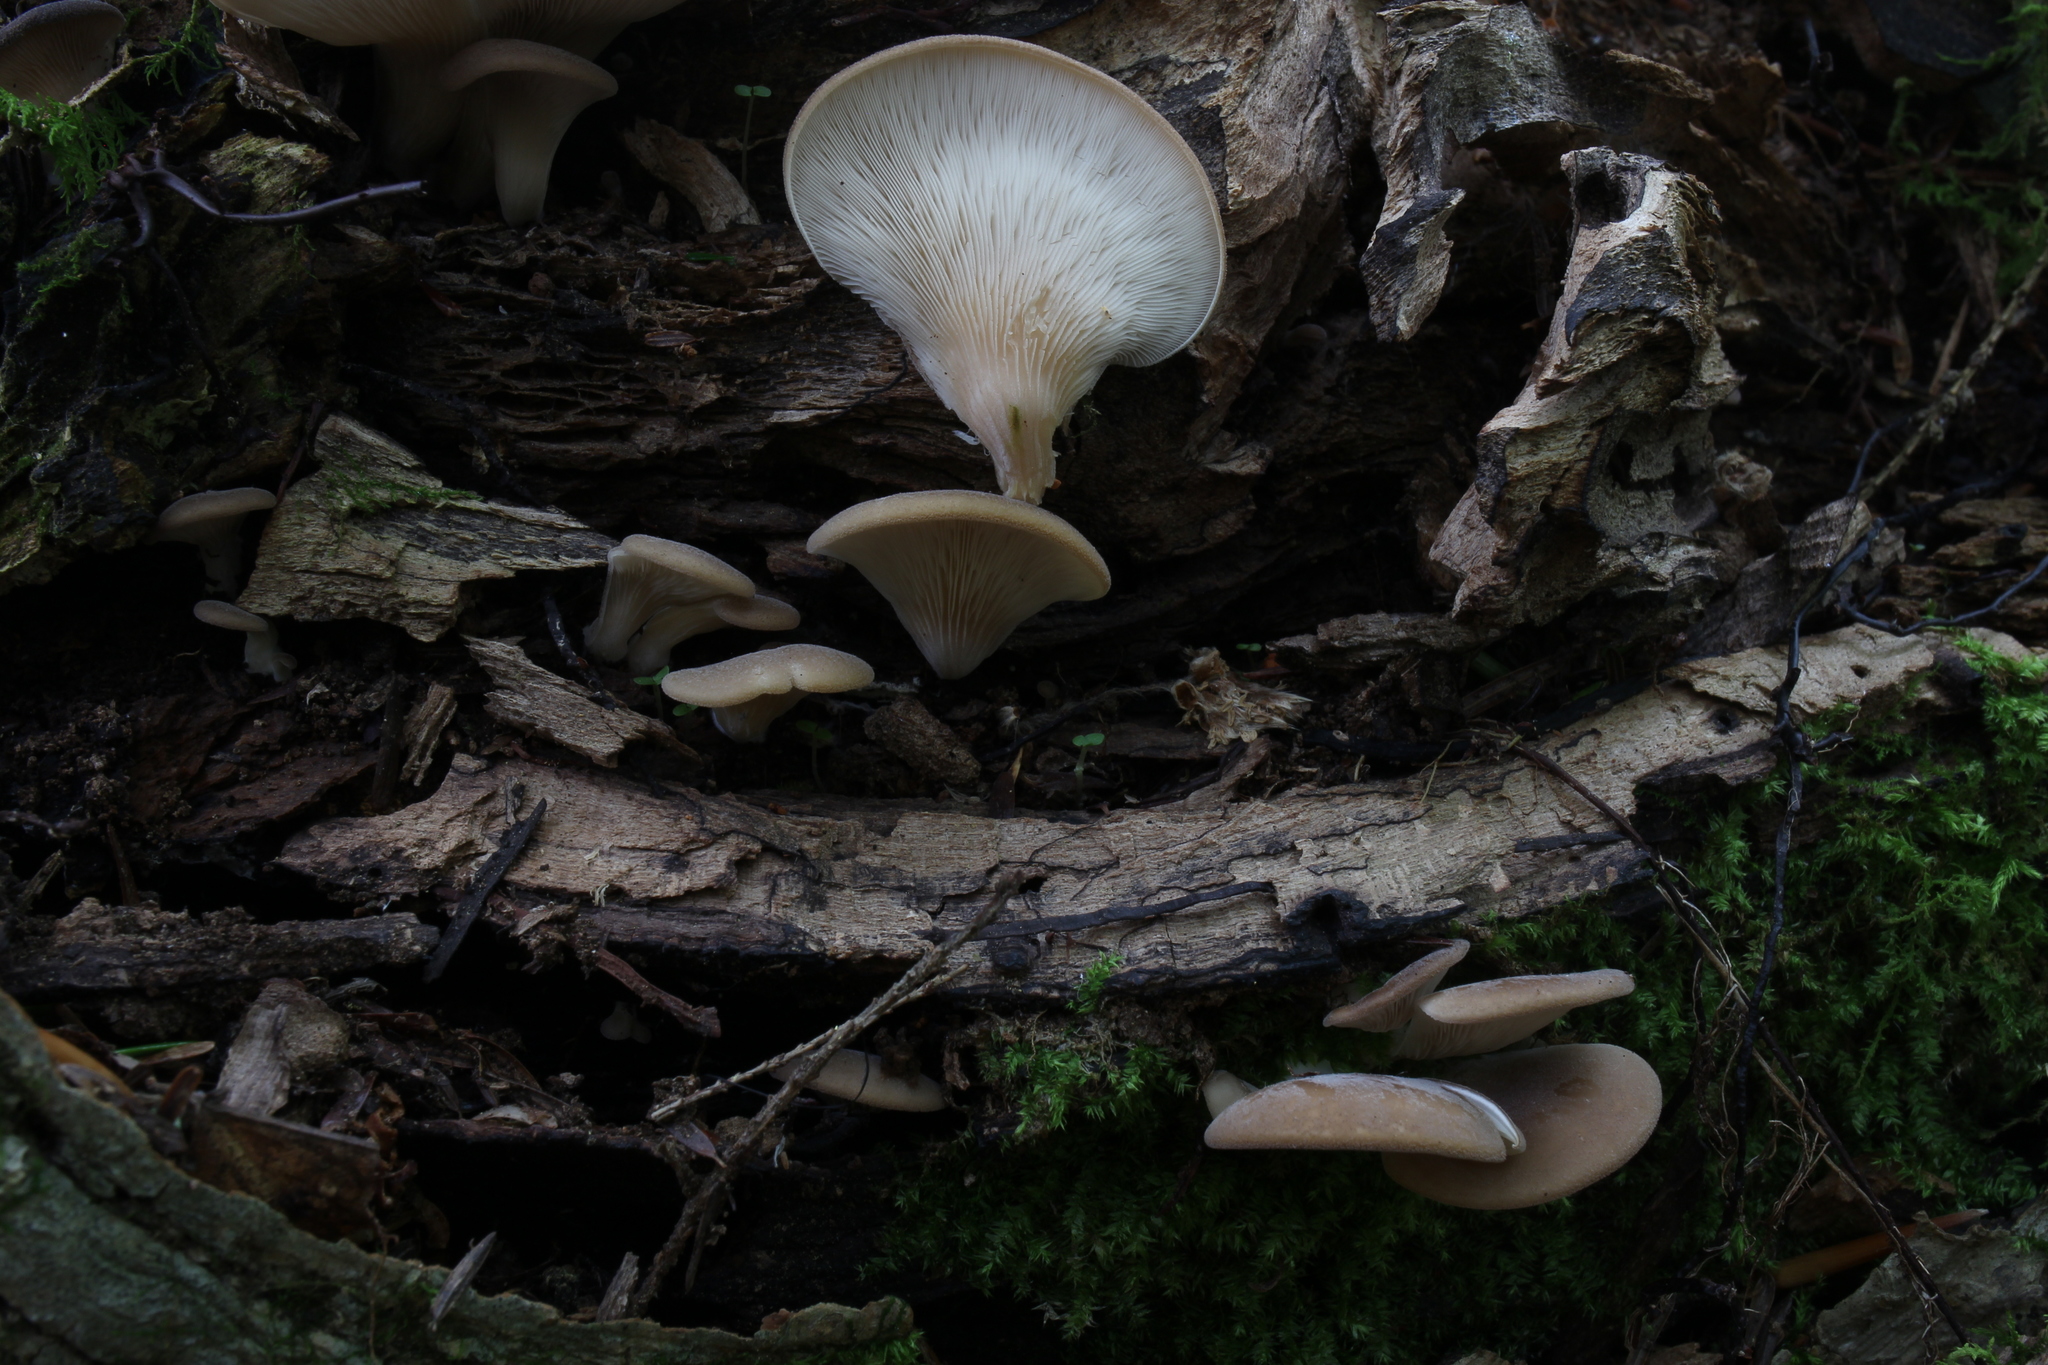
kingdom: Fungi
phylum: Basidiomycota
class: Agaricomycetes
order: Agaricales
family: Pleurotaceae
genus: Hohenbuehelia
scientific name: Hohenbuehelia angustata
